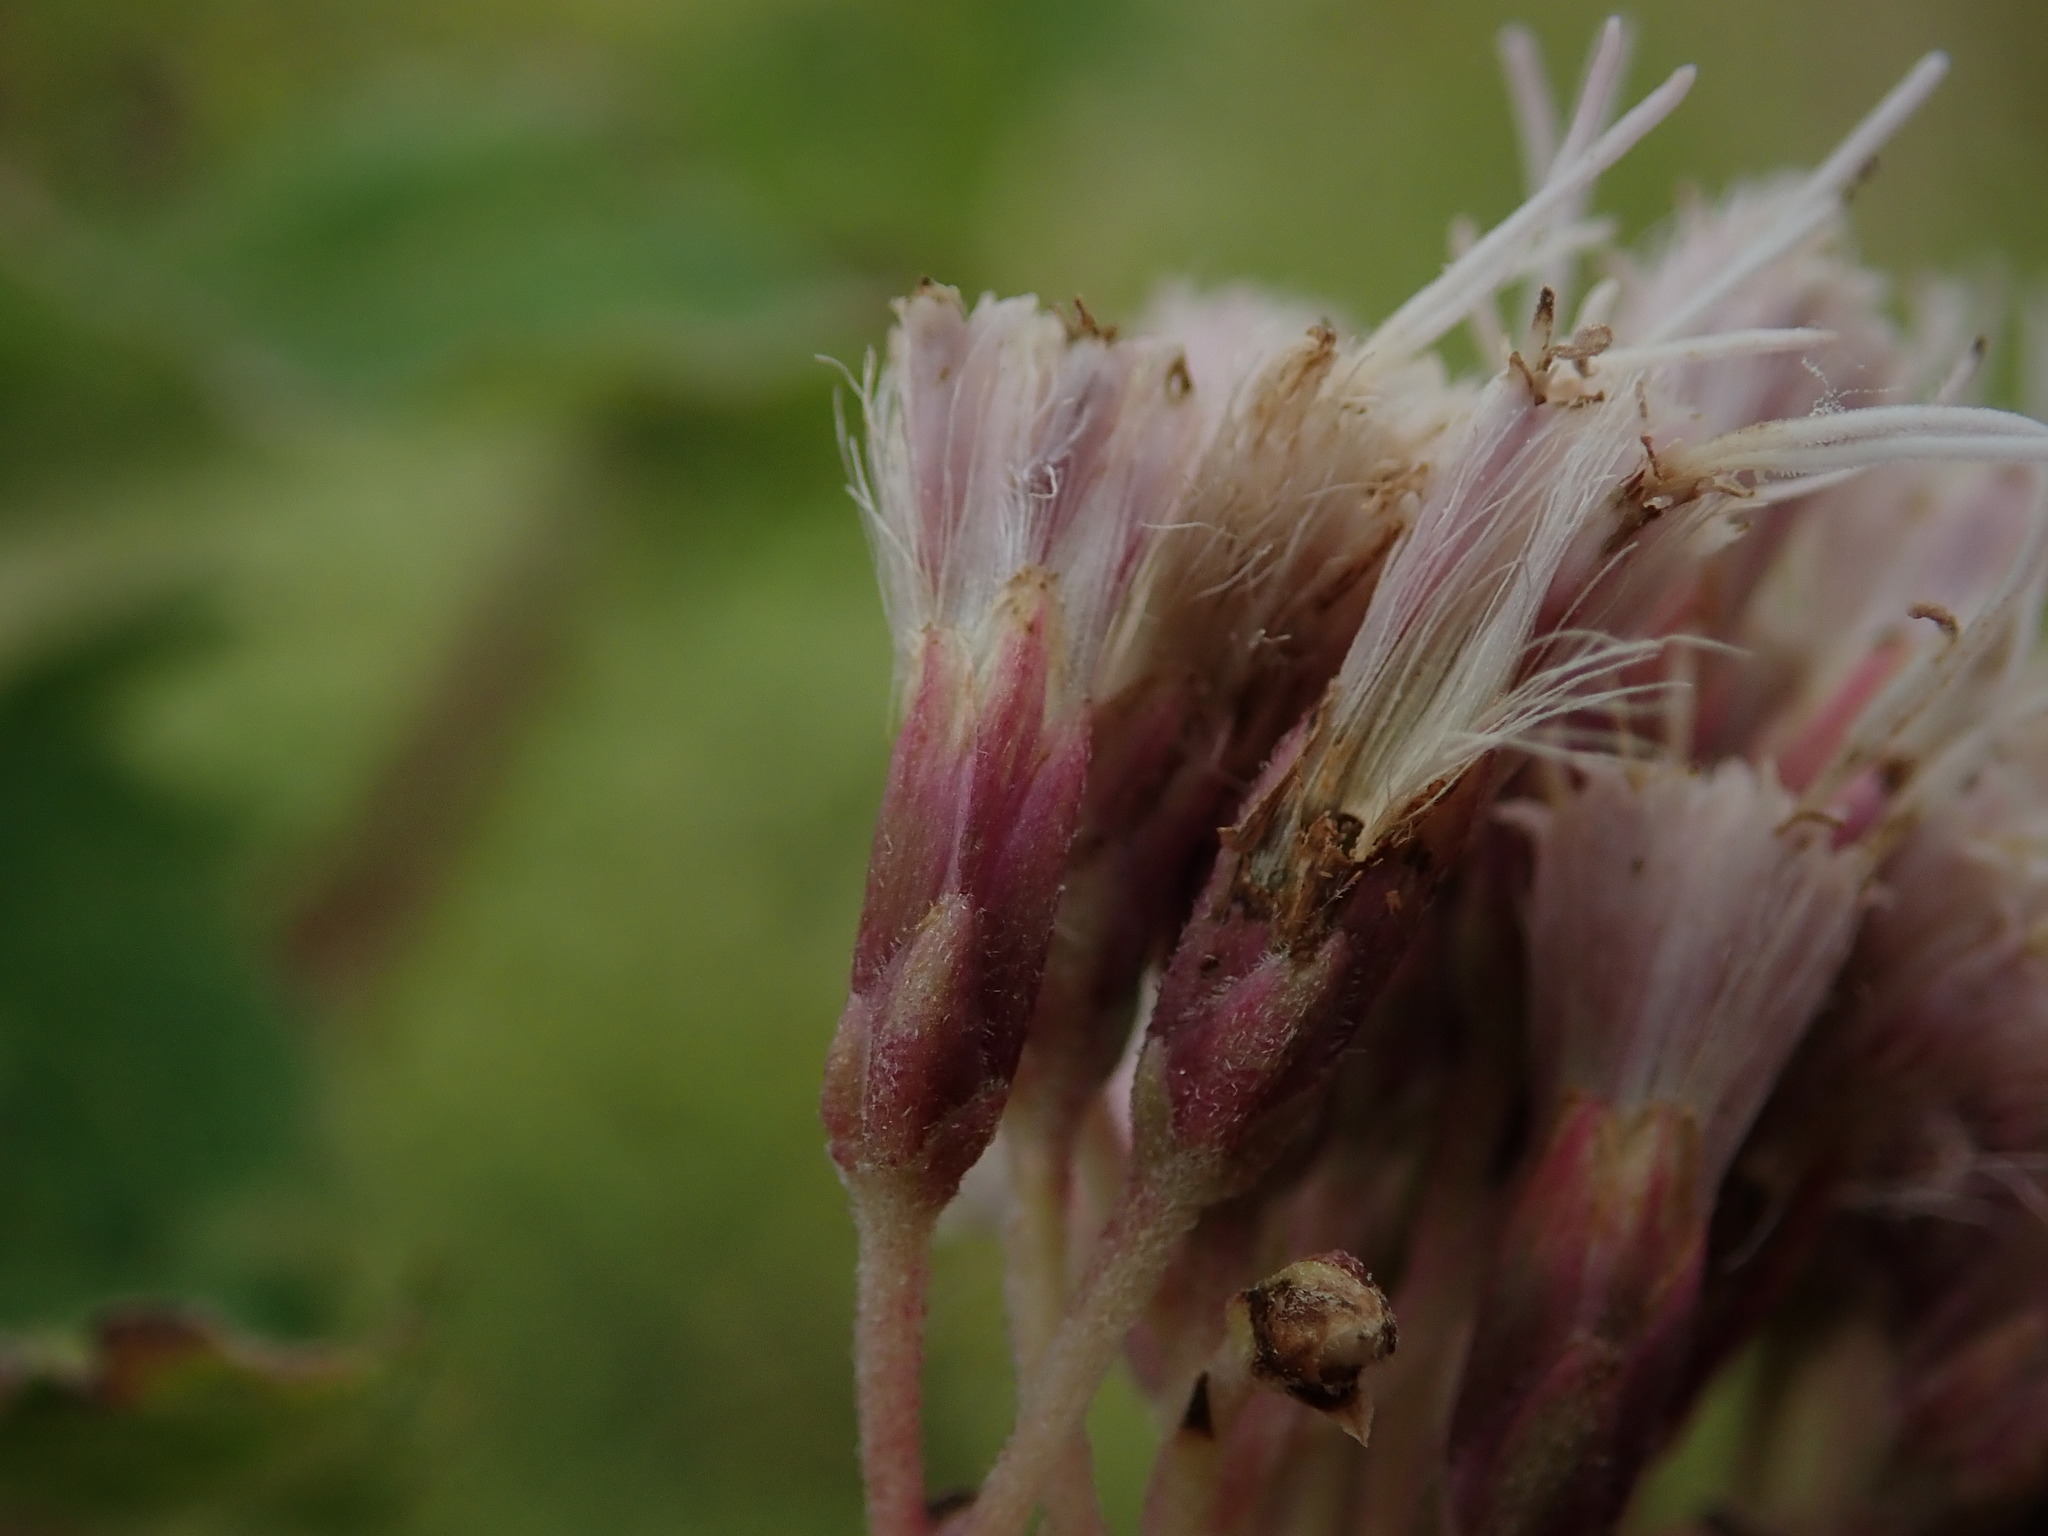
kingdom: Plantae
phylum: Tracheophyta
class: Magnoliopsida
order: Asterales
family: Asteraceae
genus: Eupatorium
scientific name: Eupatorium cannabinum
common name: Hemp-agrimony
